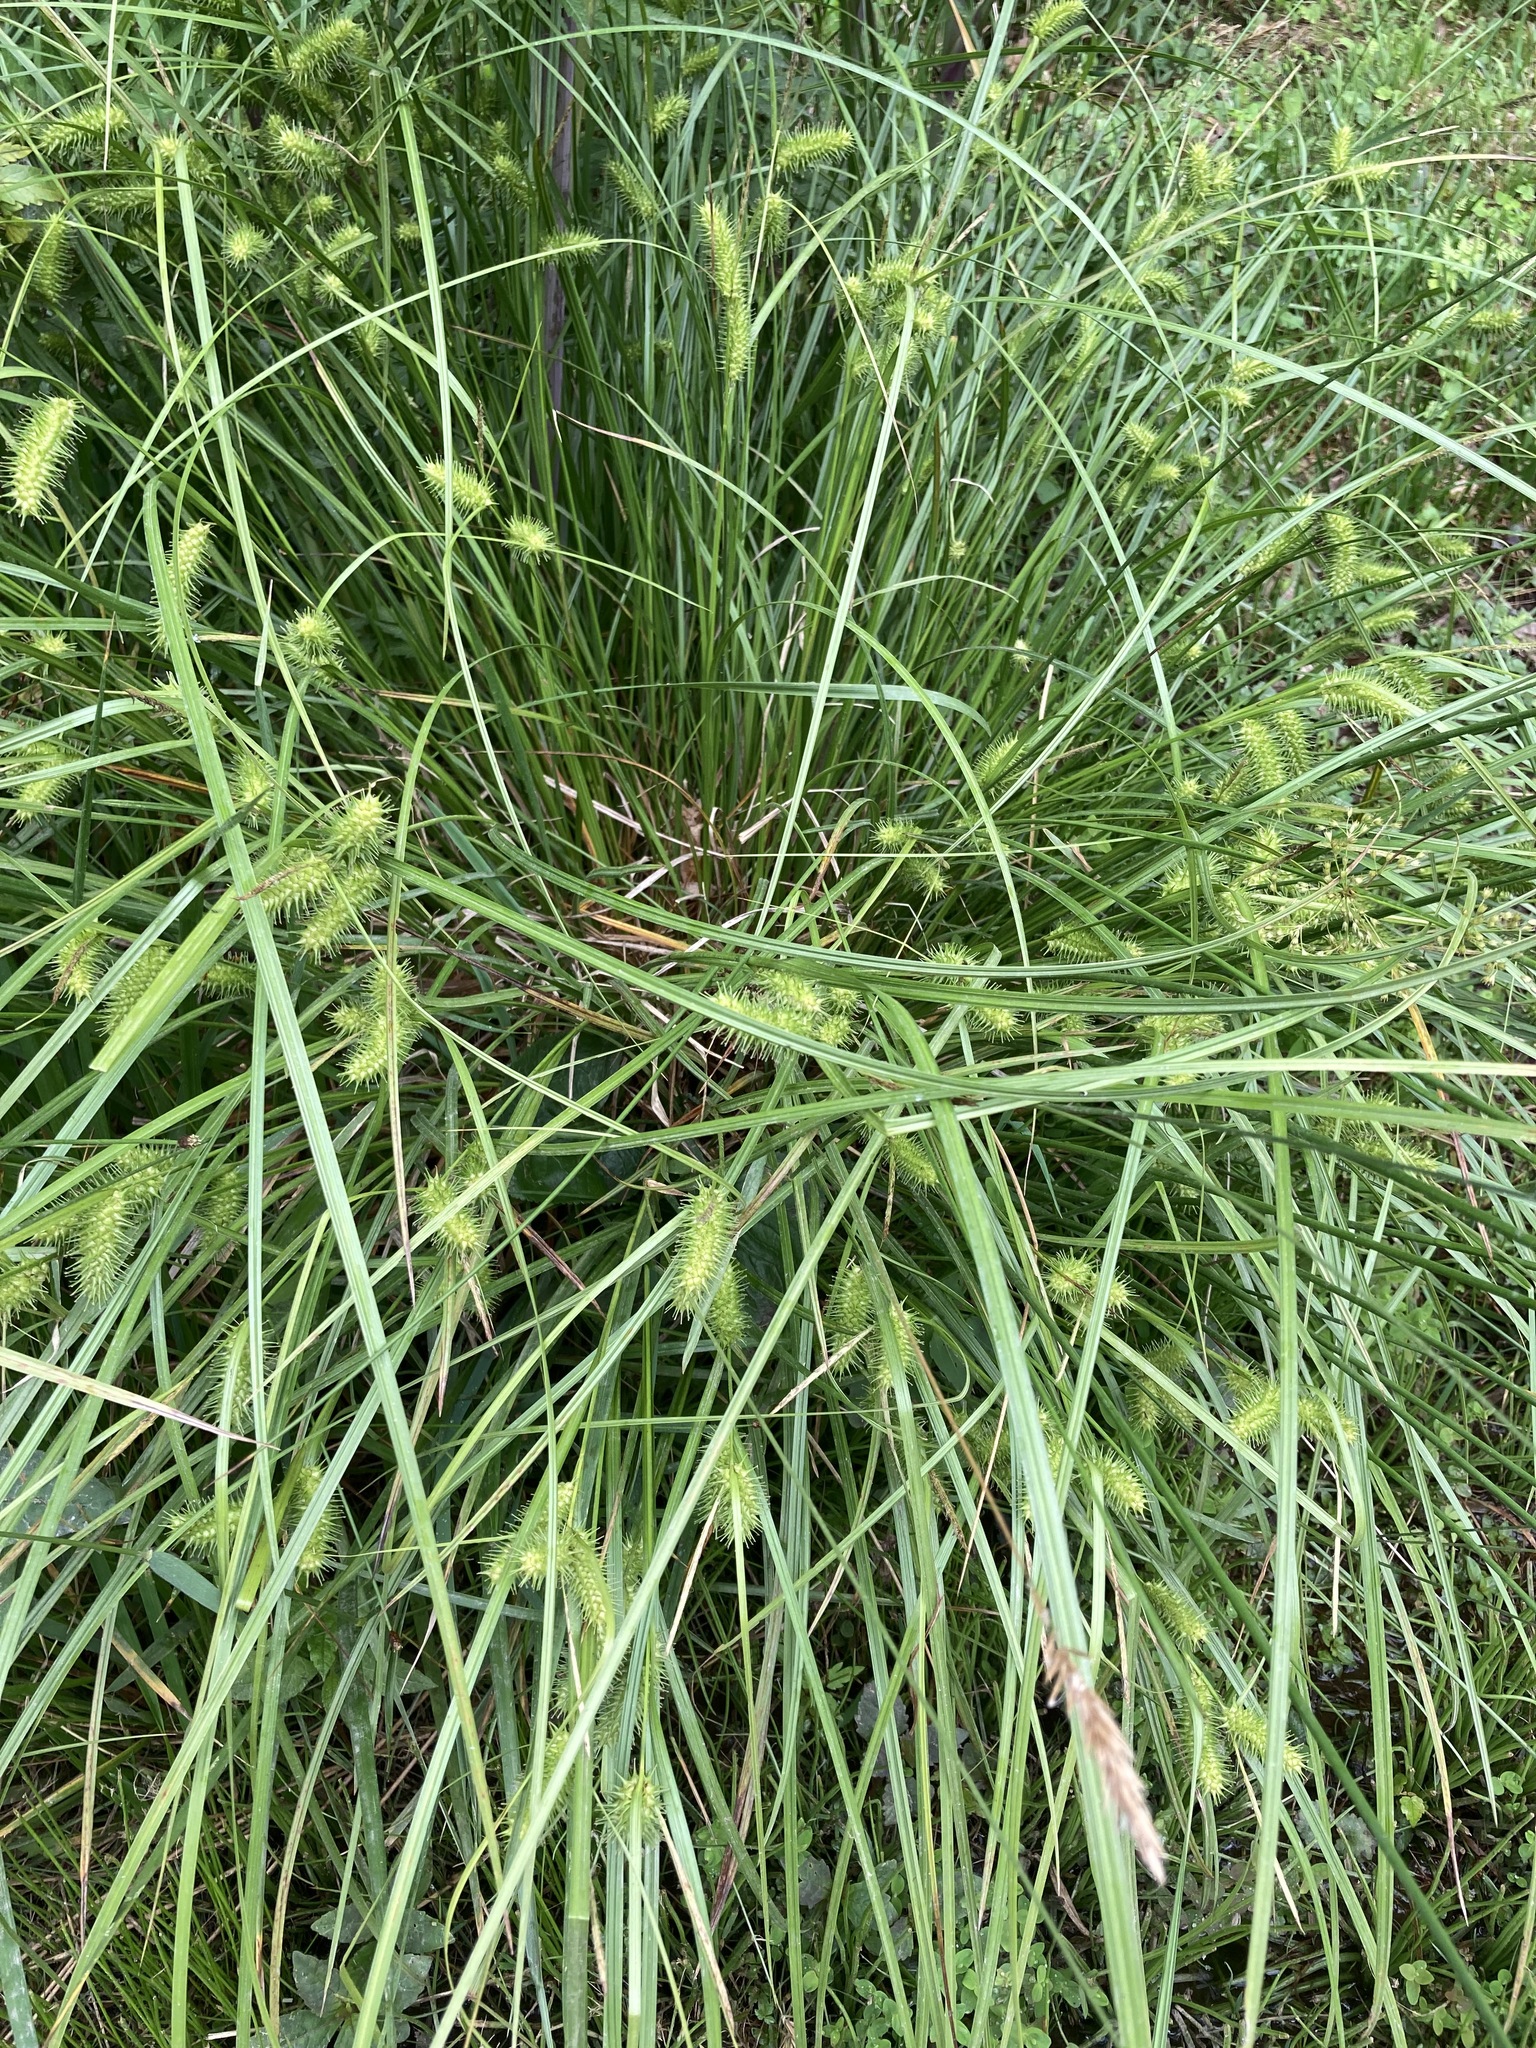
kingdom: Plantae
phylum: Tracheophyta
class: Liliopsida
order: Poales
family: Cyperaceae
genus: Carex
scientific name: Carex lurida
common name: Sallow sedge
